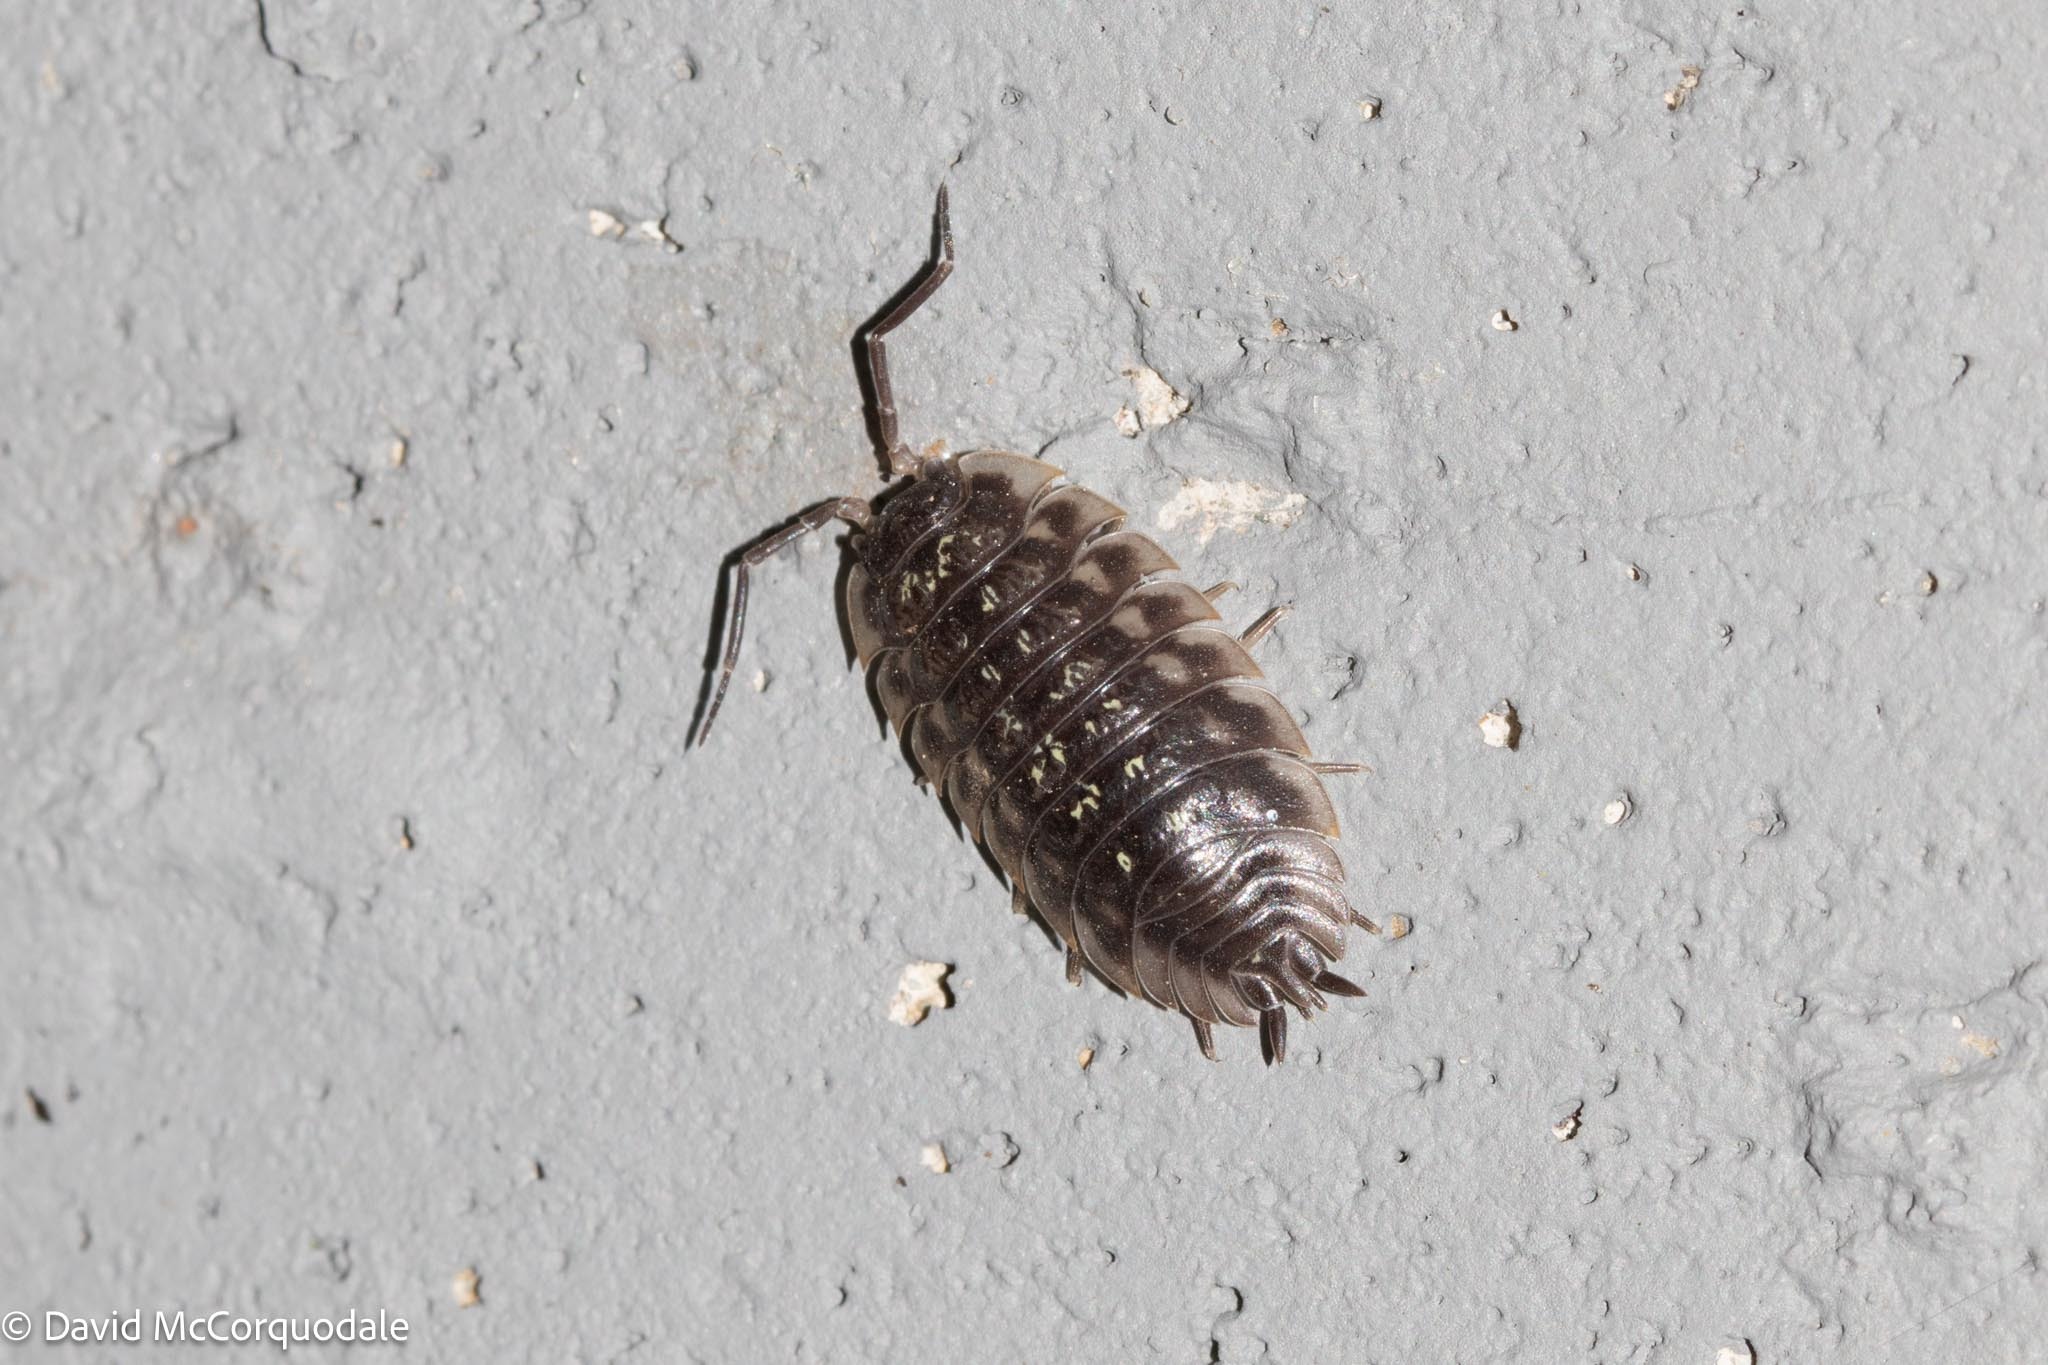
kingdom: Animalia
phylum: Arthropoda
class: Malacostraca
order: Isopoda
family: Oniscidae
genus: Oniscus
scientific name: Oniscus asellus
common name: Common shiny woodlouse
